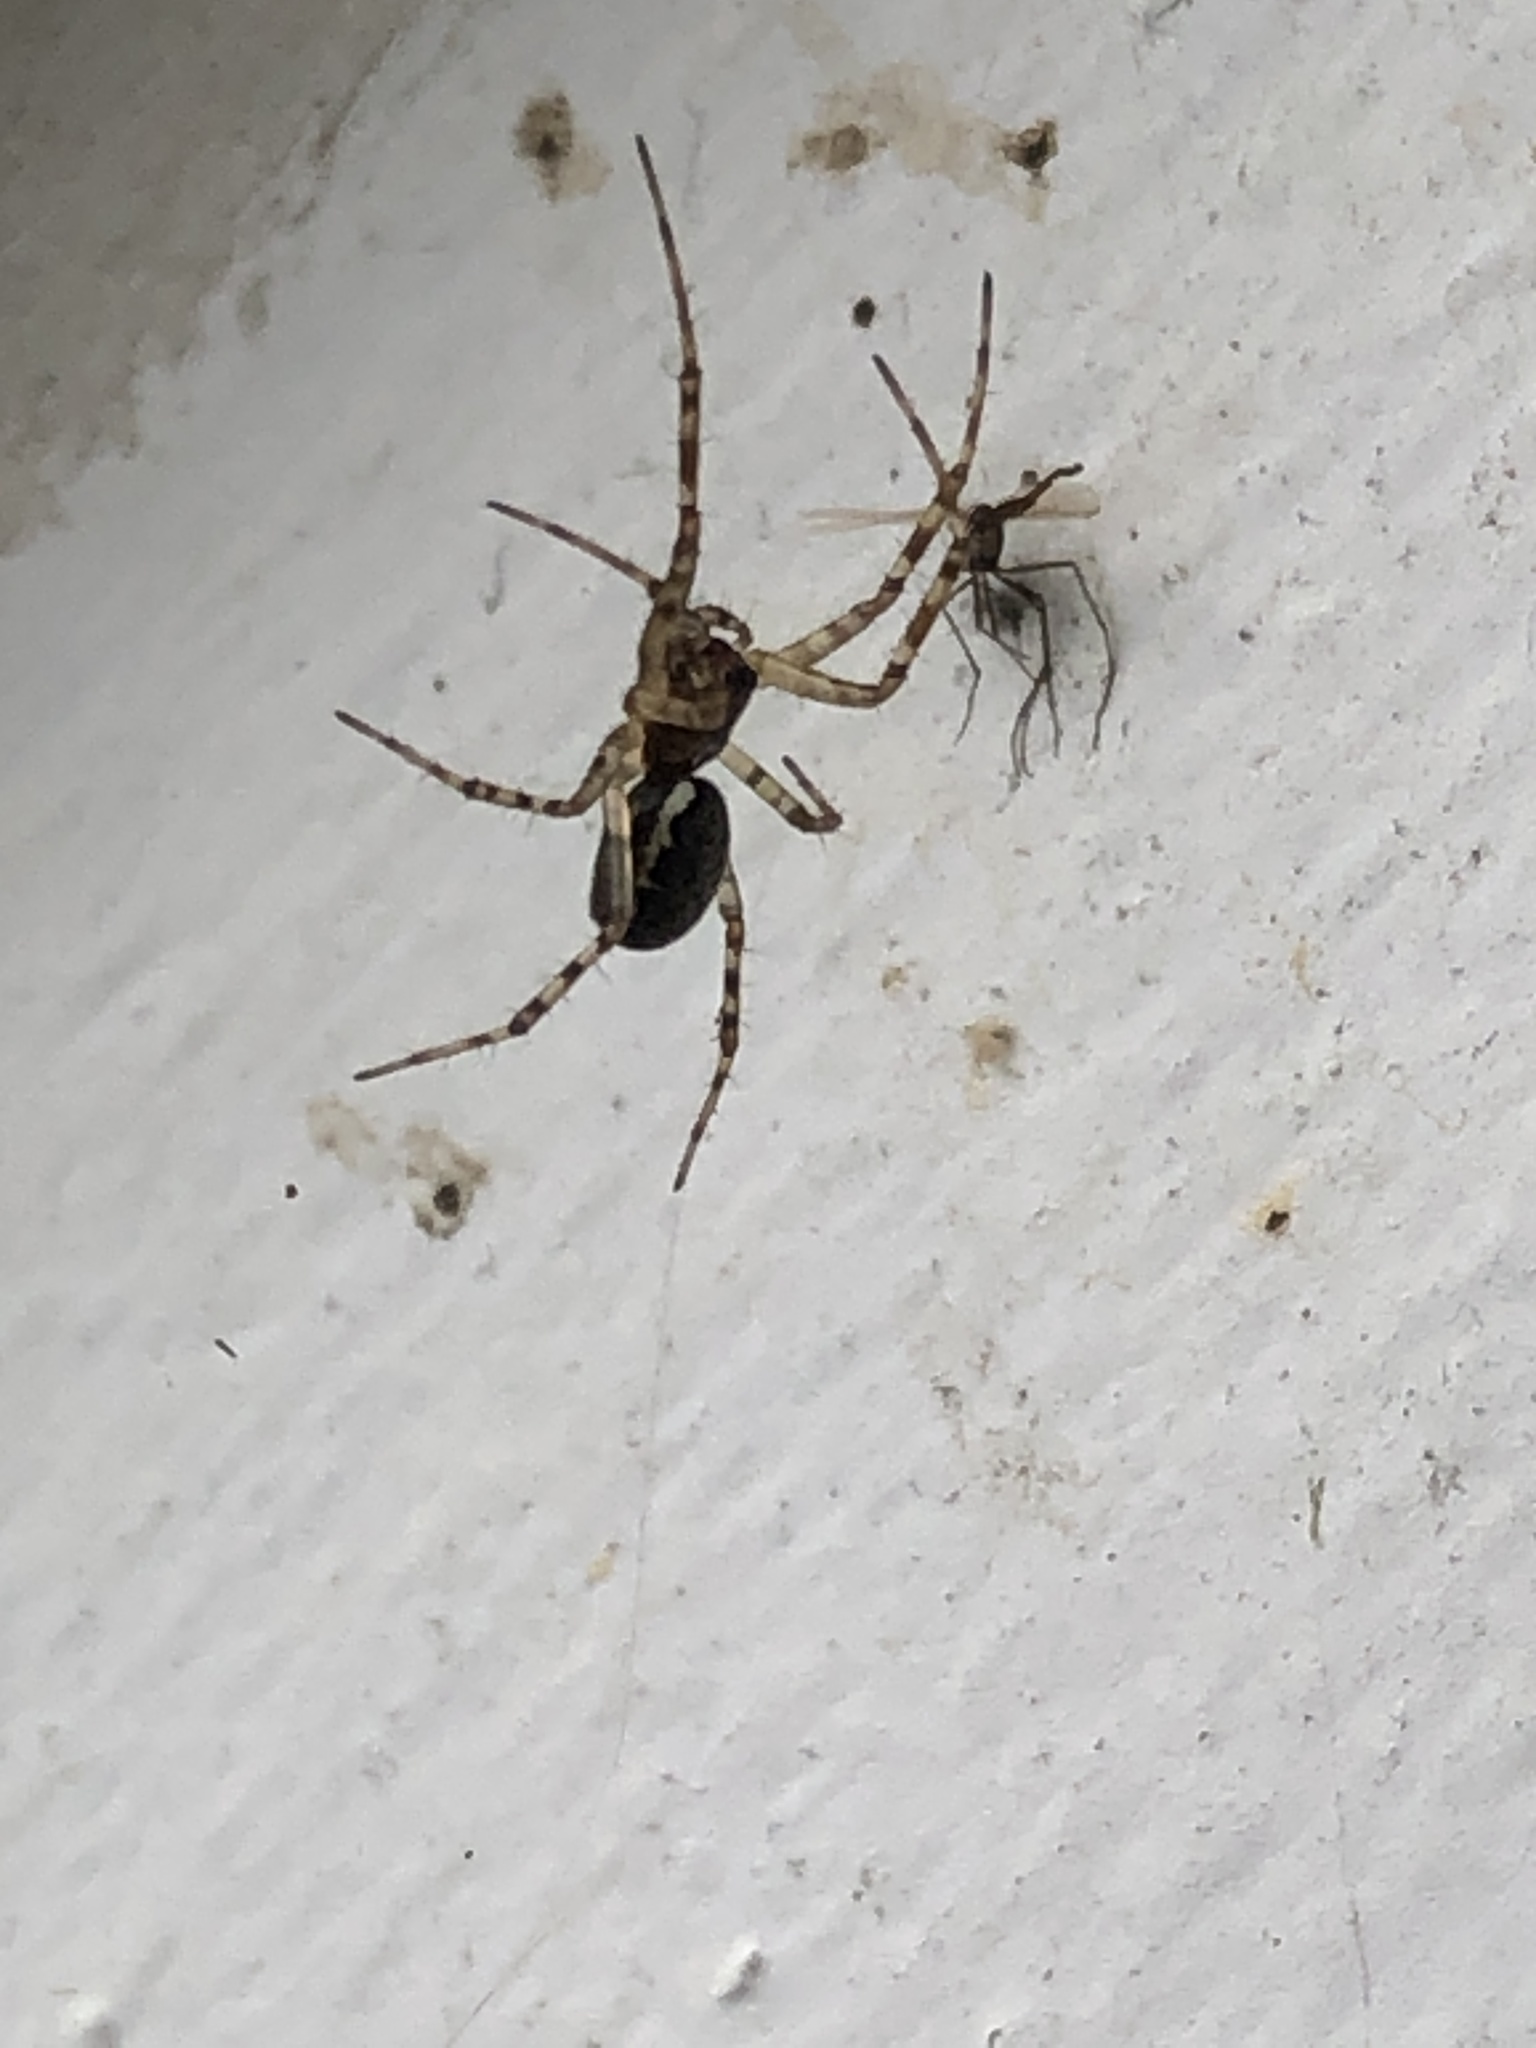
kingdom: Animalia
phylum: Arthropoda
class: Arachnida
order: Araneae
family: Linyphiidae
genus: Neriene
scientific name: Neriene montana
